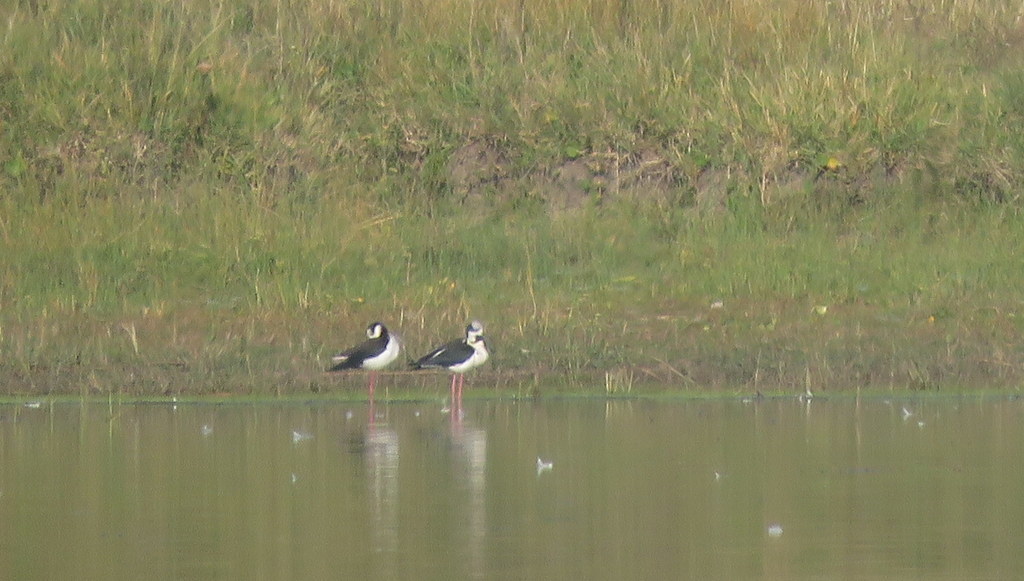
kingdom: Animalia
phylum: Chordata
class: Aves
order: Charadriiformes
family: Recurvirostridae
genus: Himantopus
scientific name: Himantopus mexicanus
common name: Black-necked stilt
